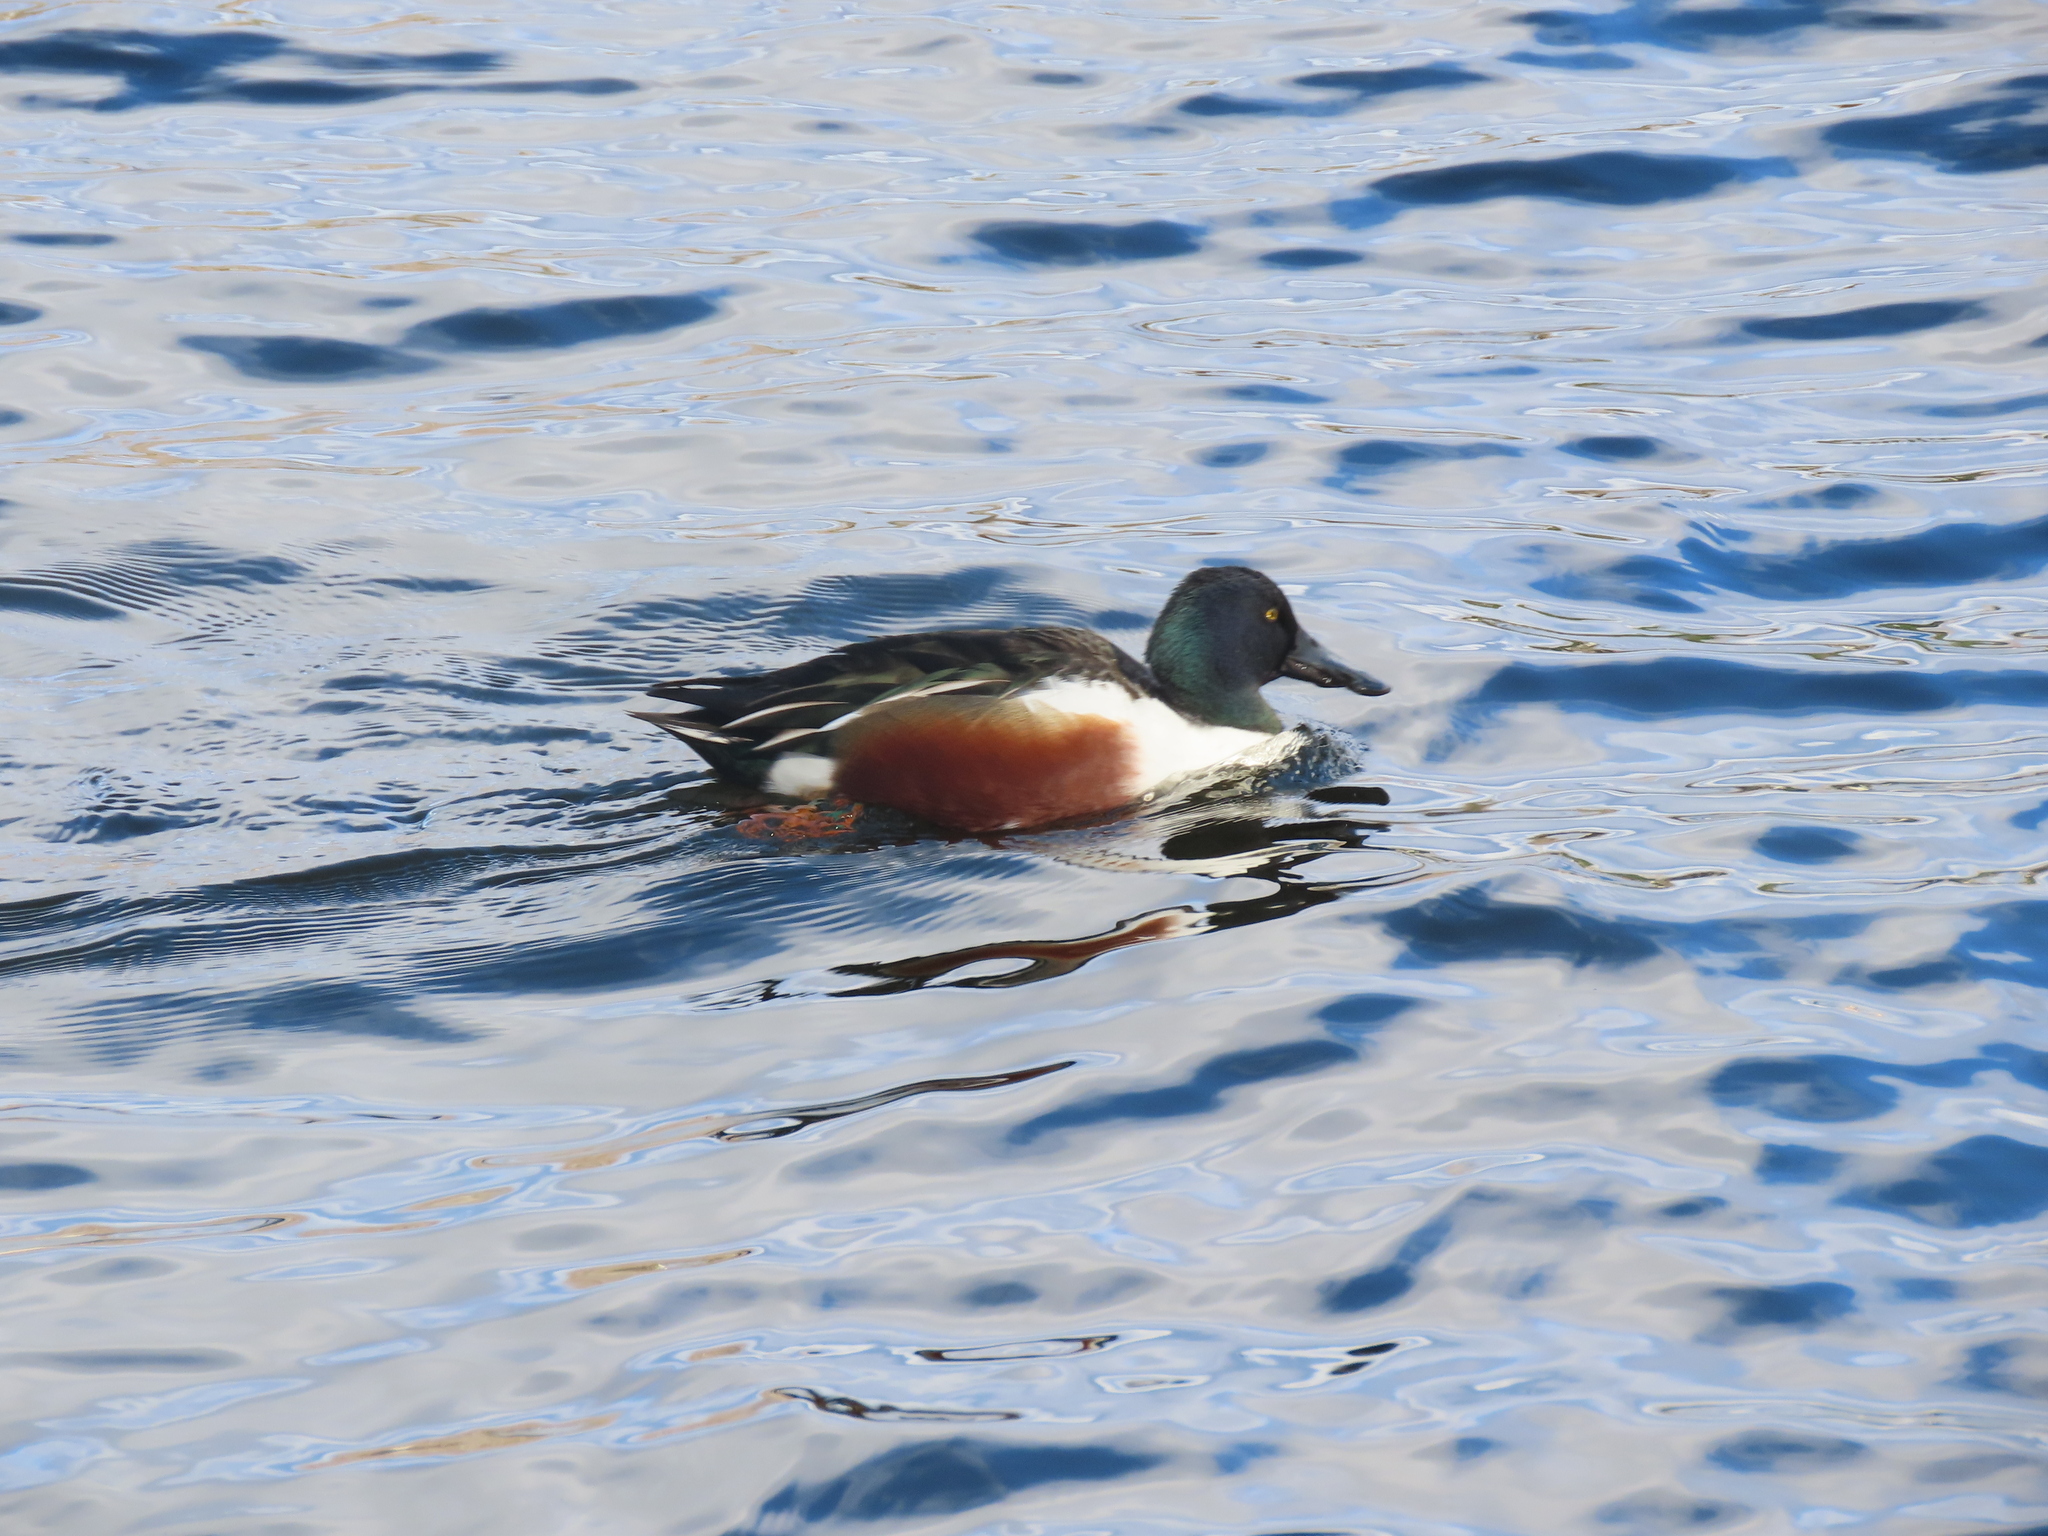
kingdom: Animalia
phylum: Chordata
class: Aves
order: Anseriformes
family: Anatidae
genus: Spatula
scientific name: Spatula clypeata
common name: Northern shoveler
